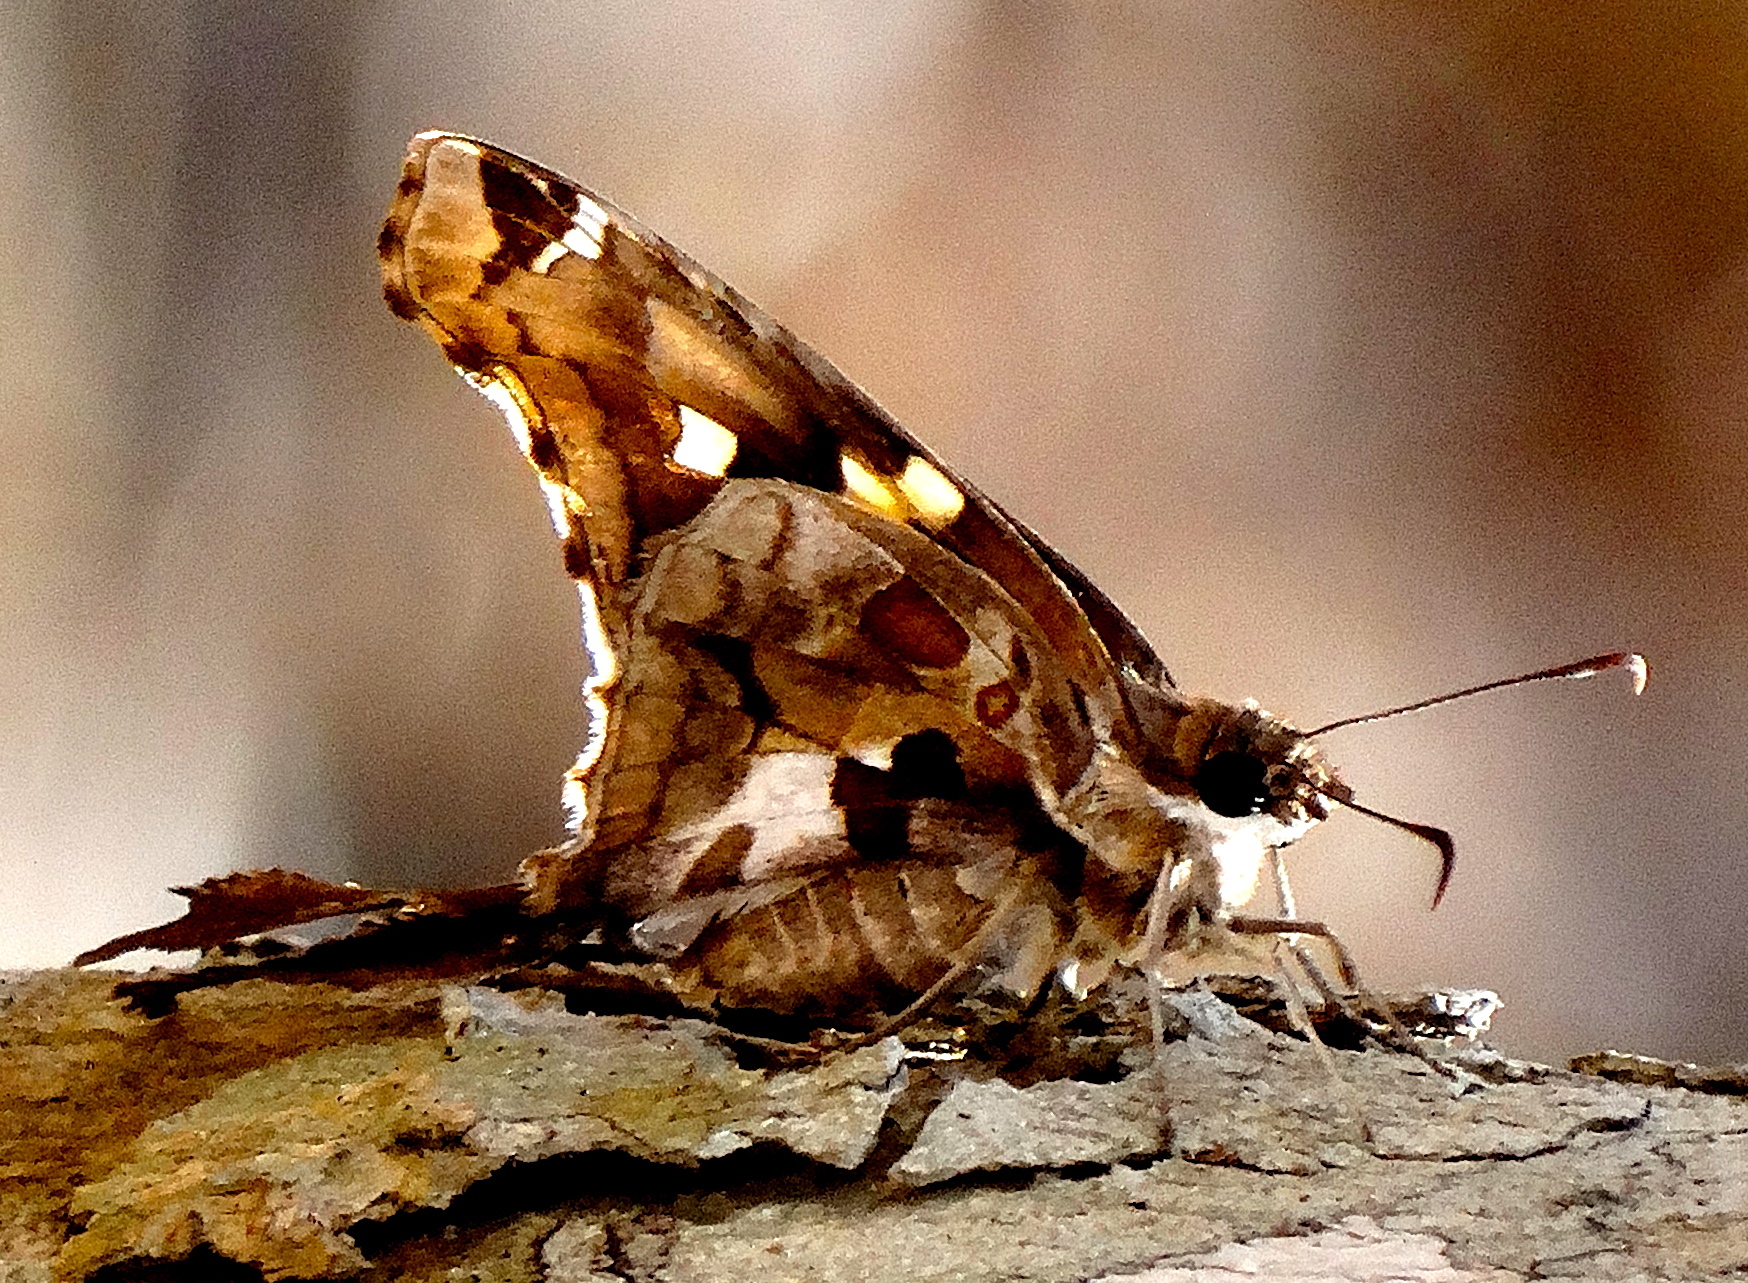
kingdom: Animalia
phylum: Arthropoda
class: Insecta
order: Lepidoptera
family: Hesperiidae
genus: Chioides
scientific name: Chioides zilpa
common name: Zilpa longtail
